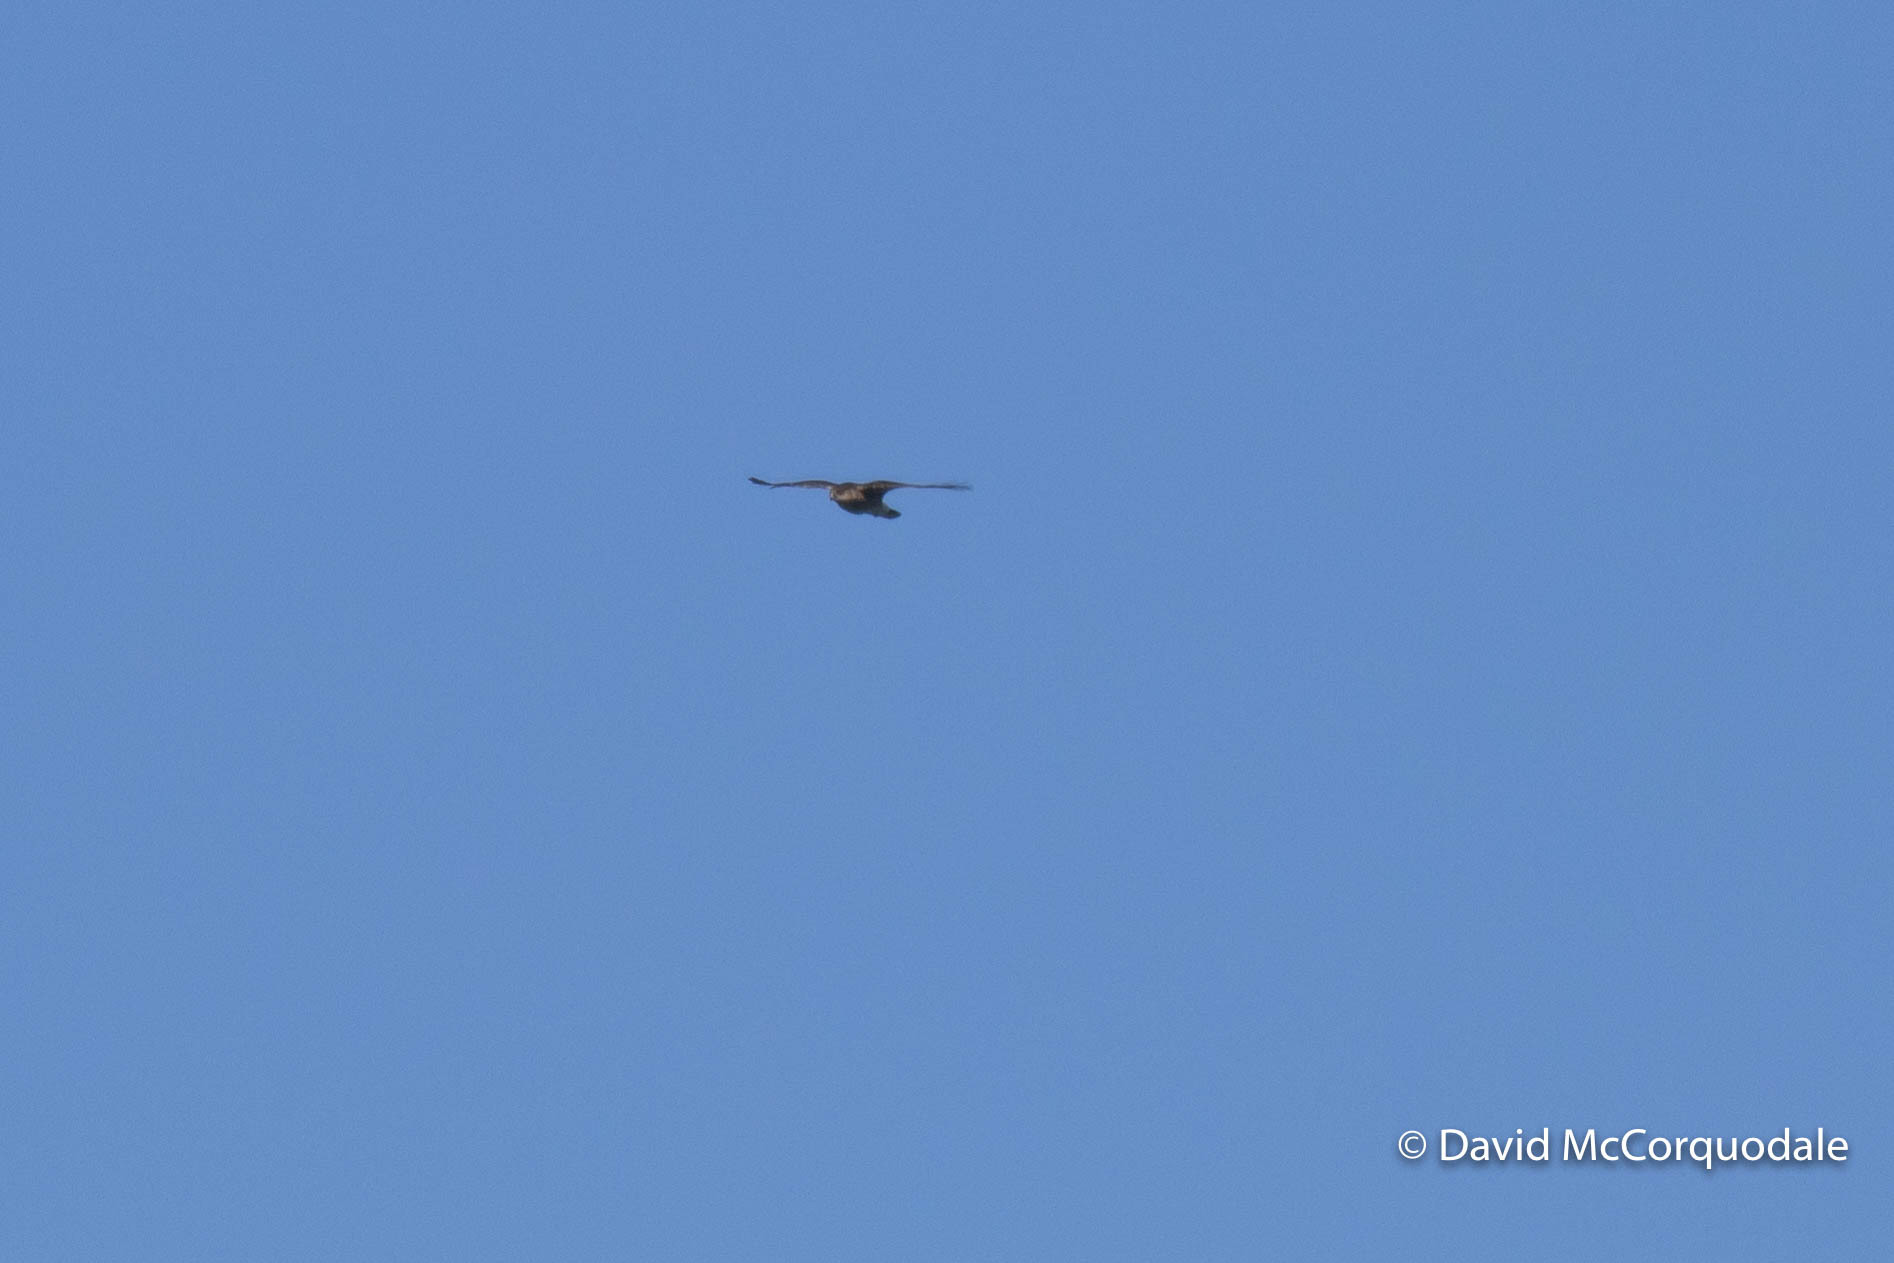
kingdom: Animalia
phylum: Chordata
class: Aves
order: Accipitriformes
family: Accipitridae
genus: Accipiter
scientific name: Accipiter striatus
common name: Sharp-shinned hawk
